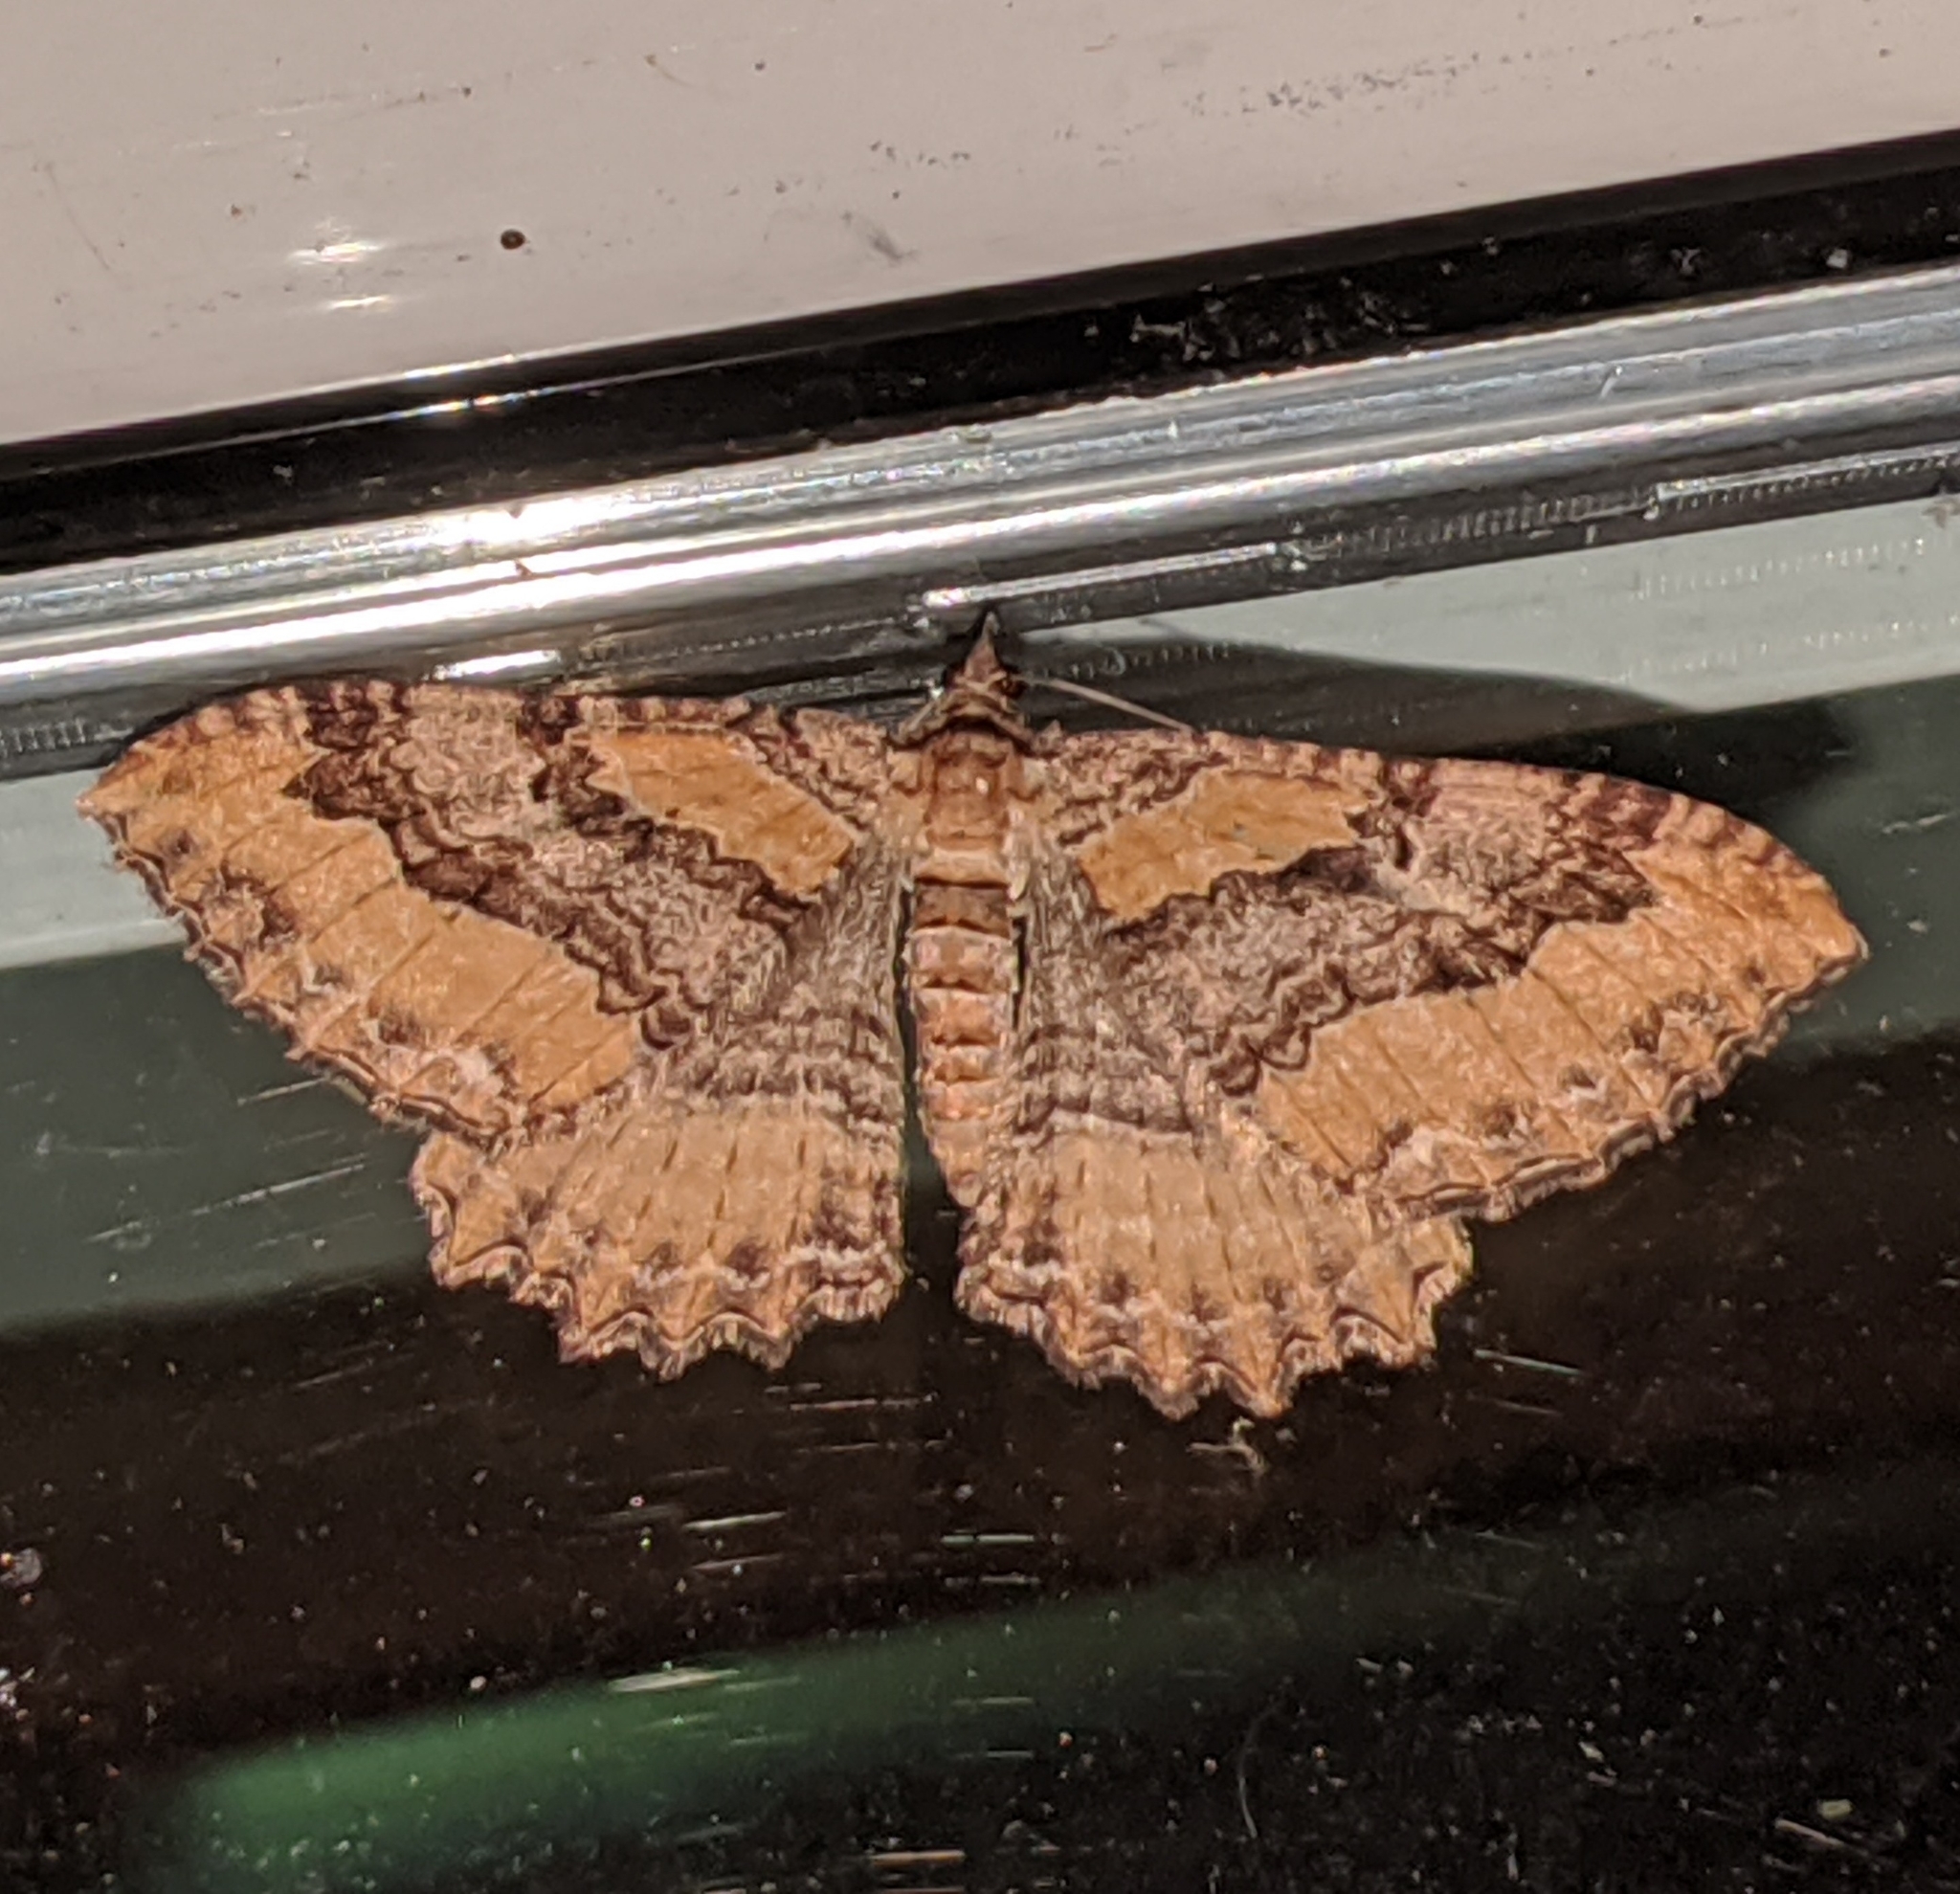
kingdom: Animalia
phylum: Arthropoda
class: Insecta
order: Lepidoptera
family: Geometridae
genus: Rheumaptera
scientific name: Rheumaptera
